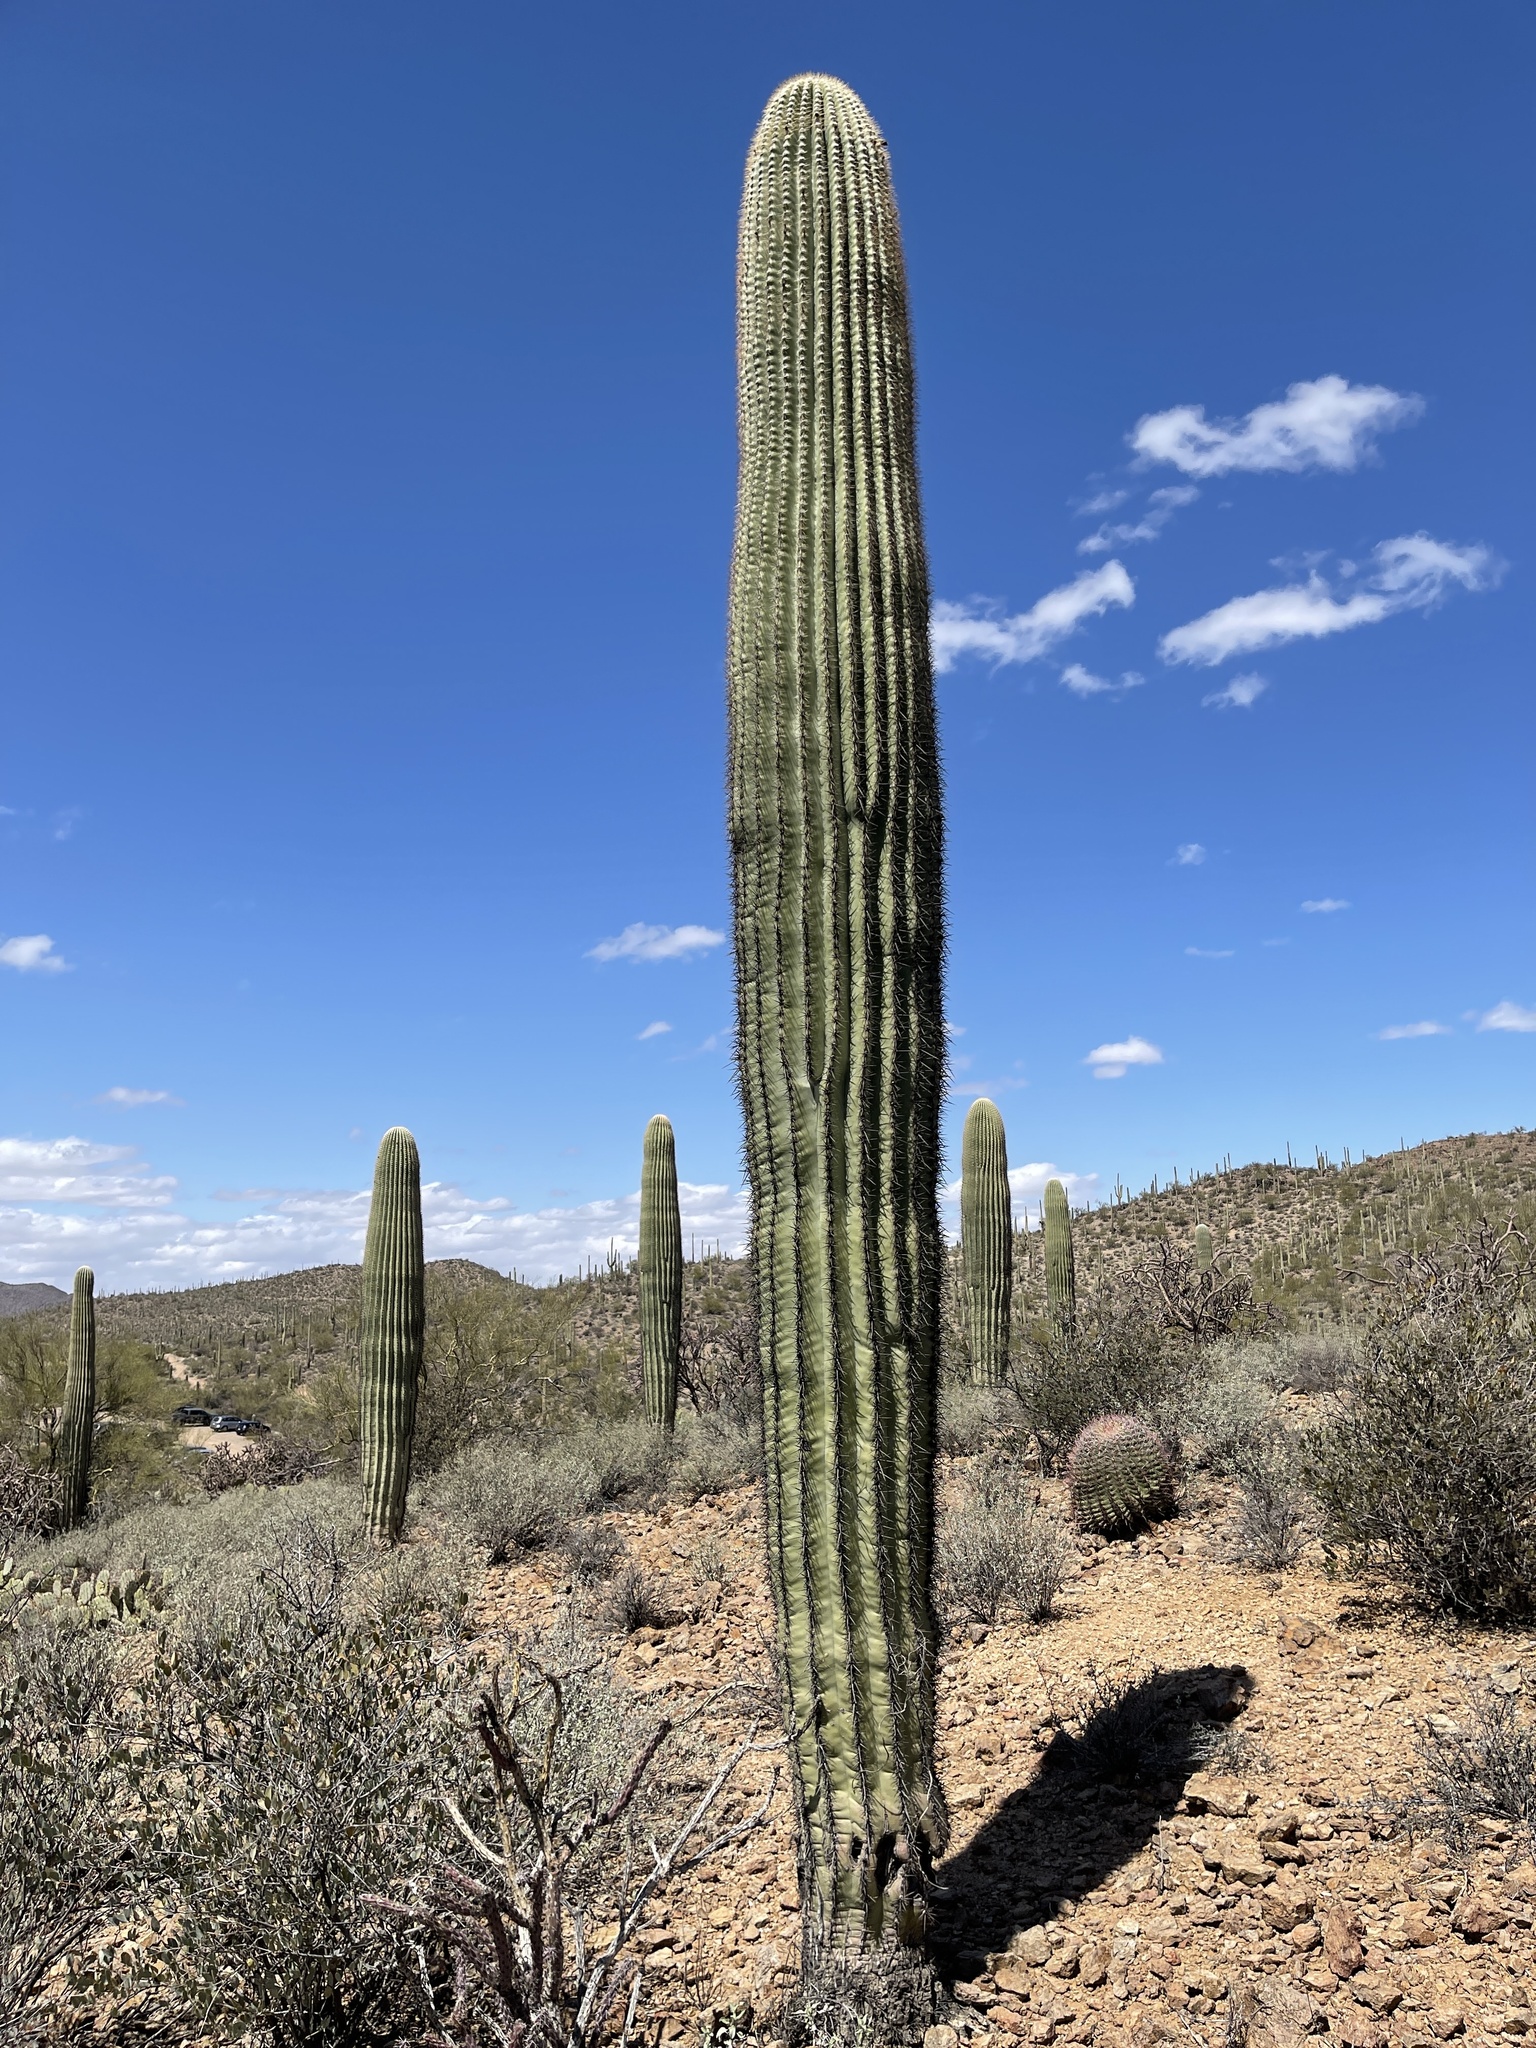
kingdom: Plantae
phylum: Tracheophyta
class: Magnoliopsida
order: Caryophyllales
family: Cactaceae
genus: Carnegiea
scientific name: Carnegiea gigantea
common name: Saguaro
